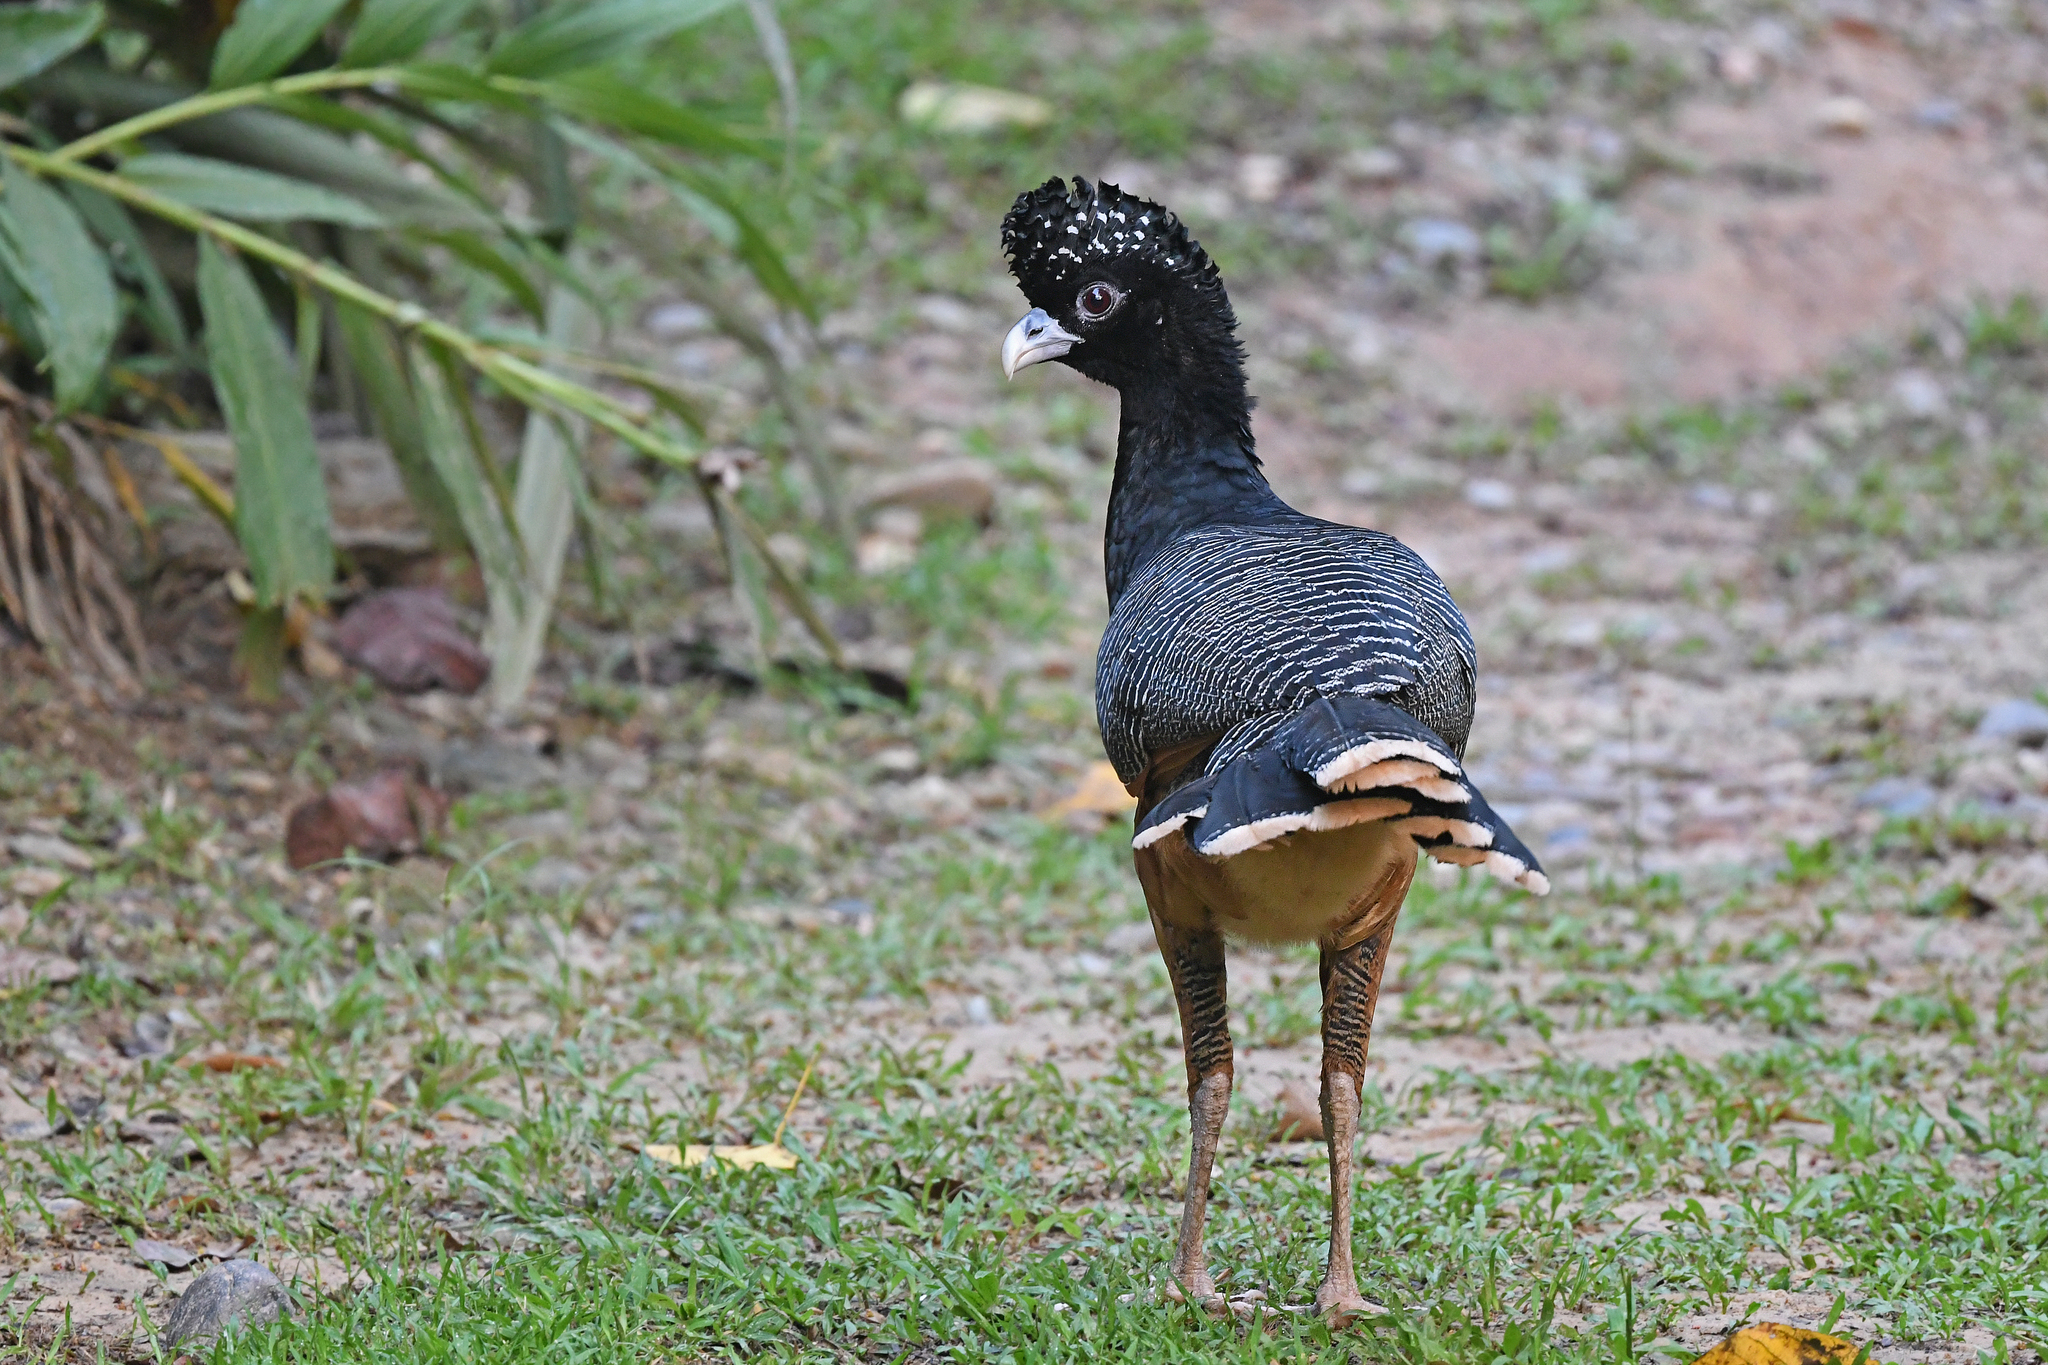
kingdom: Animalia
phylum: Chordata
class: Aves
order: Galliformes
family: Cracidae
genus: Crax
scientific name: Crax alberti
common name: Blue-billed curassow
